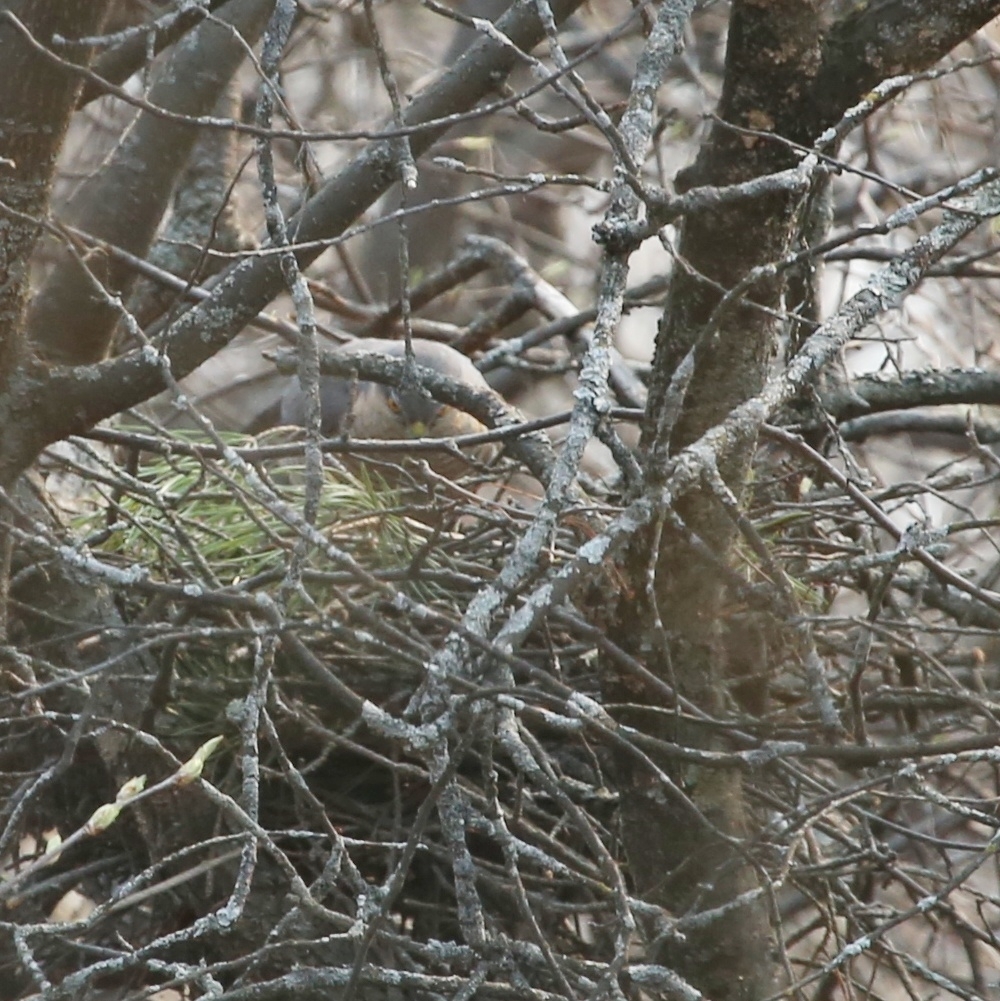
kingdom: Animalia
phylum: Chordata
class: Aves
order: Accipitriformes
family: Accipitridae
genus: Accipiter
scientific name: Accipiter nisus
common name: Eurasian sparrowhawk
